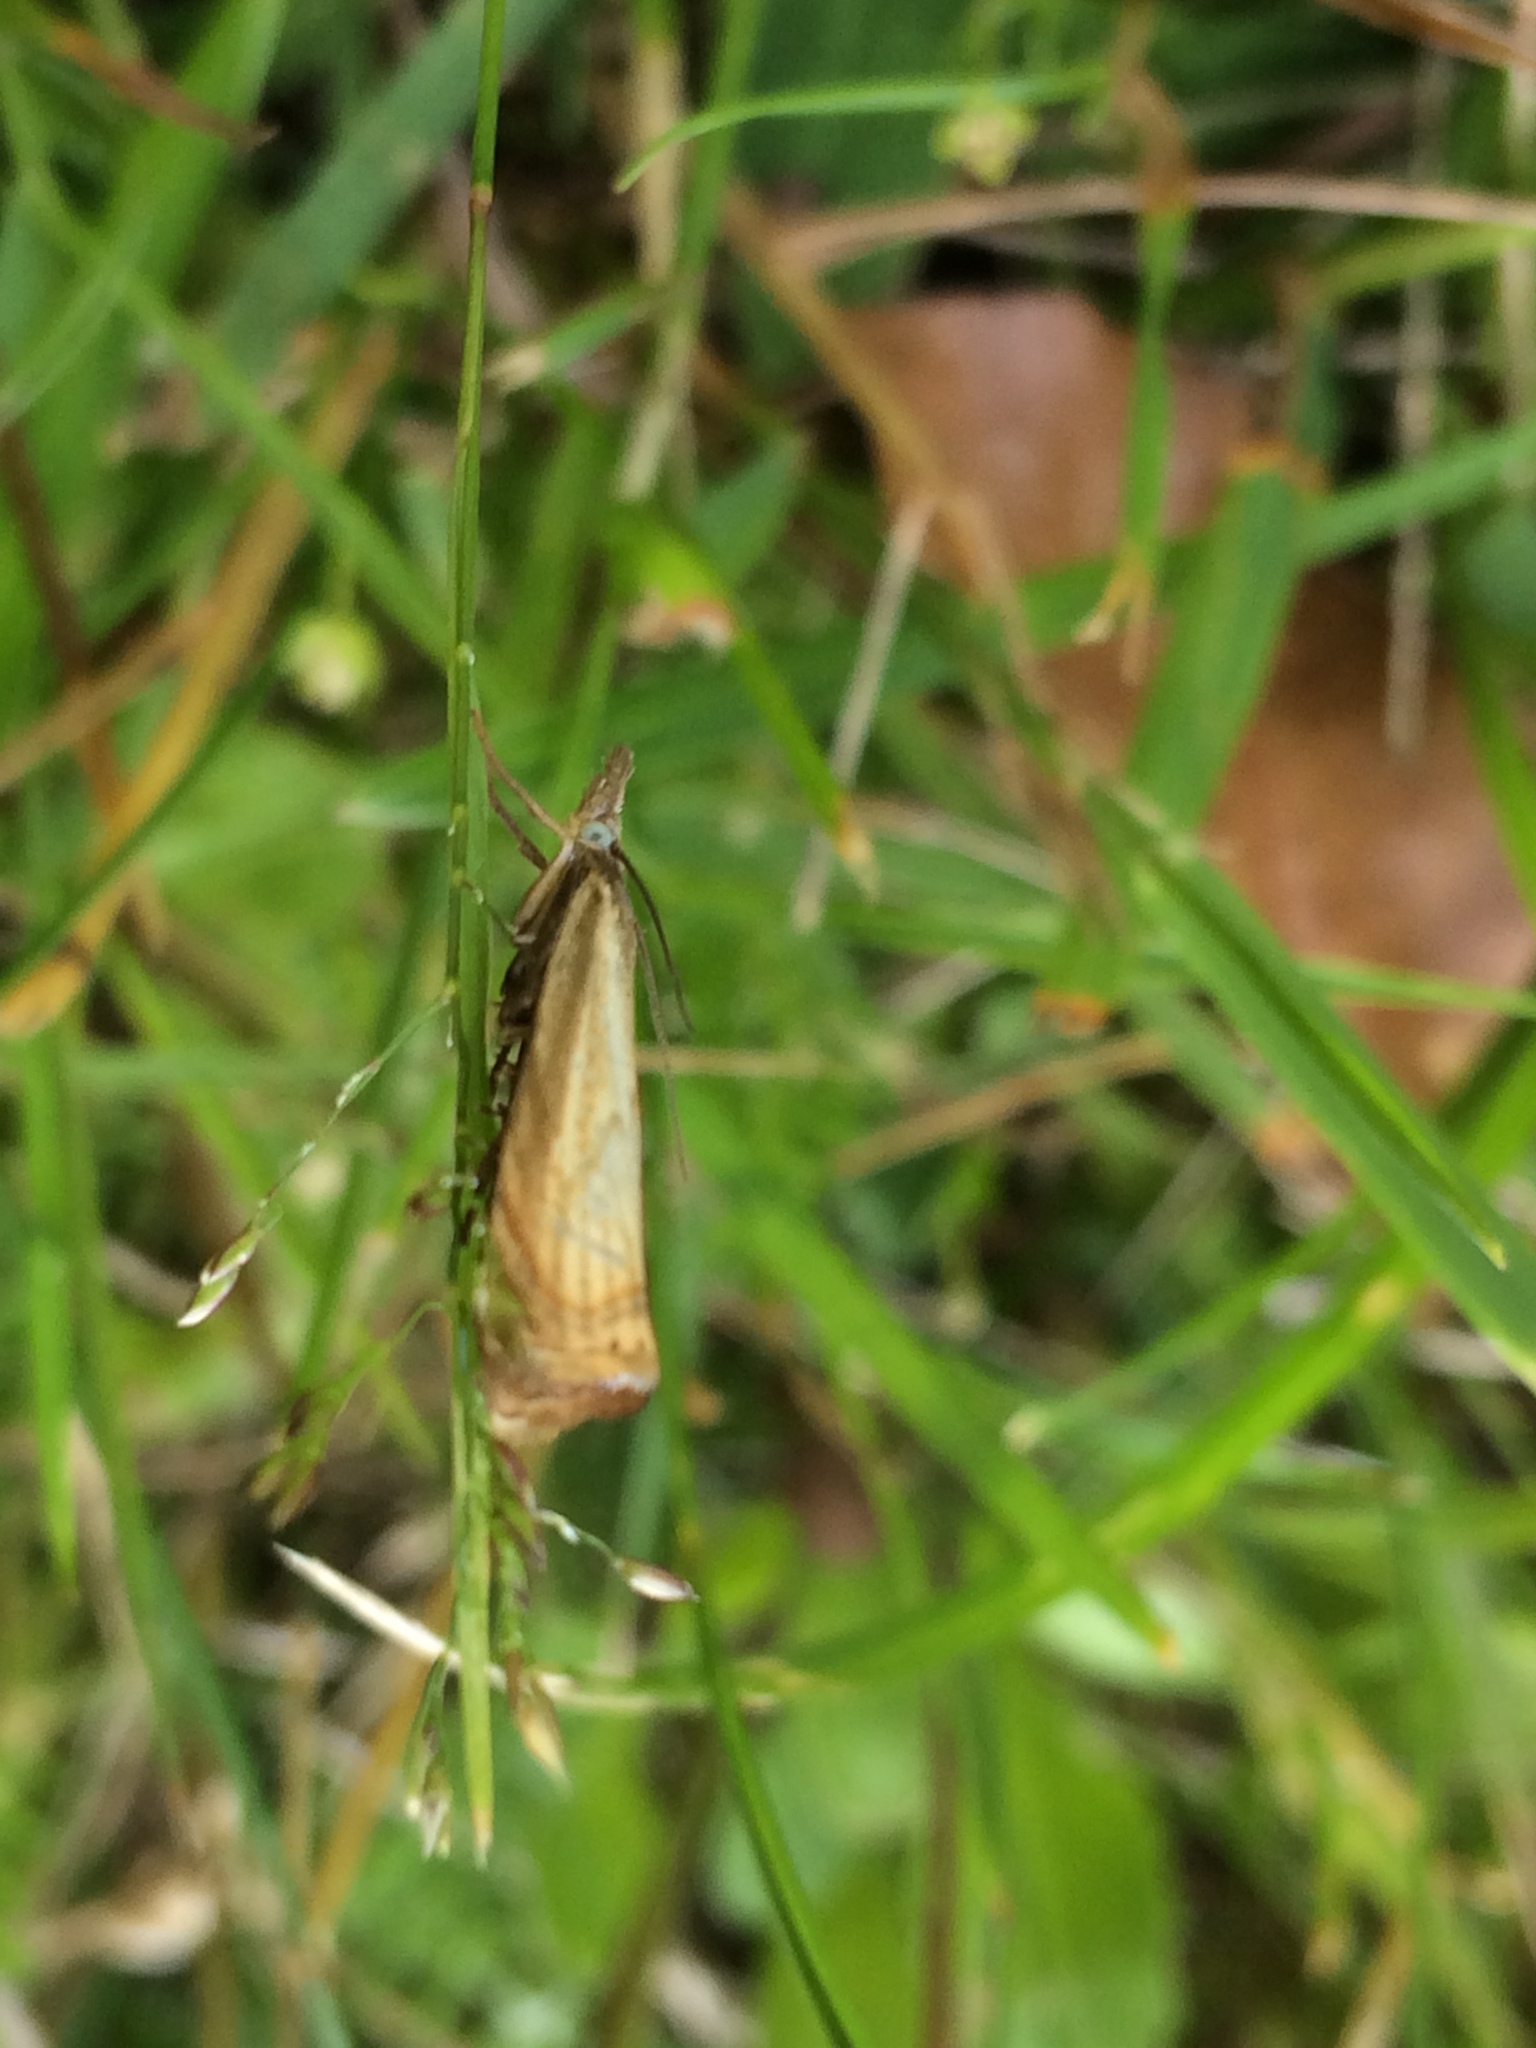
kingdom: Animalia
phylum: Arthropoda
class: Insecta
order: Lepidoptera
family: Crambidae
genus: Chrysoteuchia
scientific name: Chrysoteuchia culmella
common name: Garden grass-veneer
